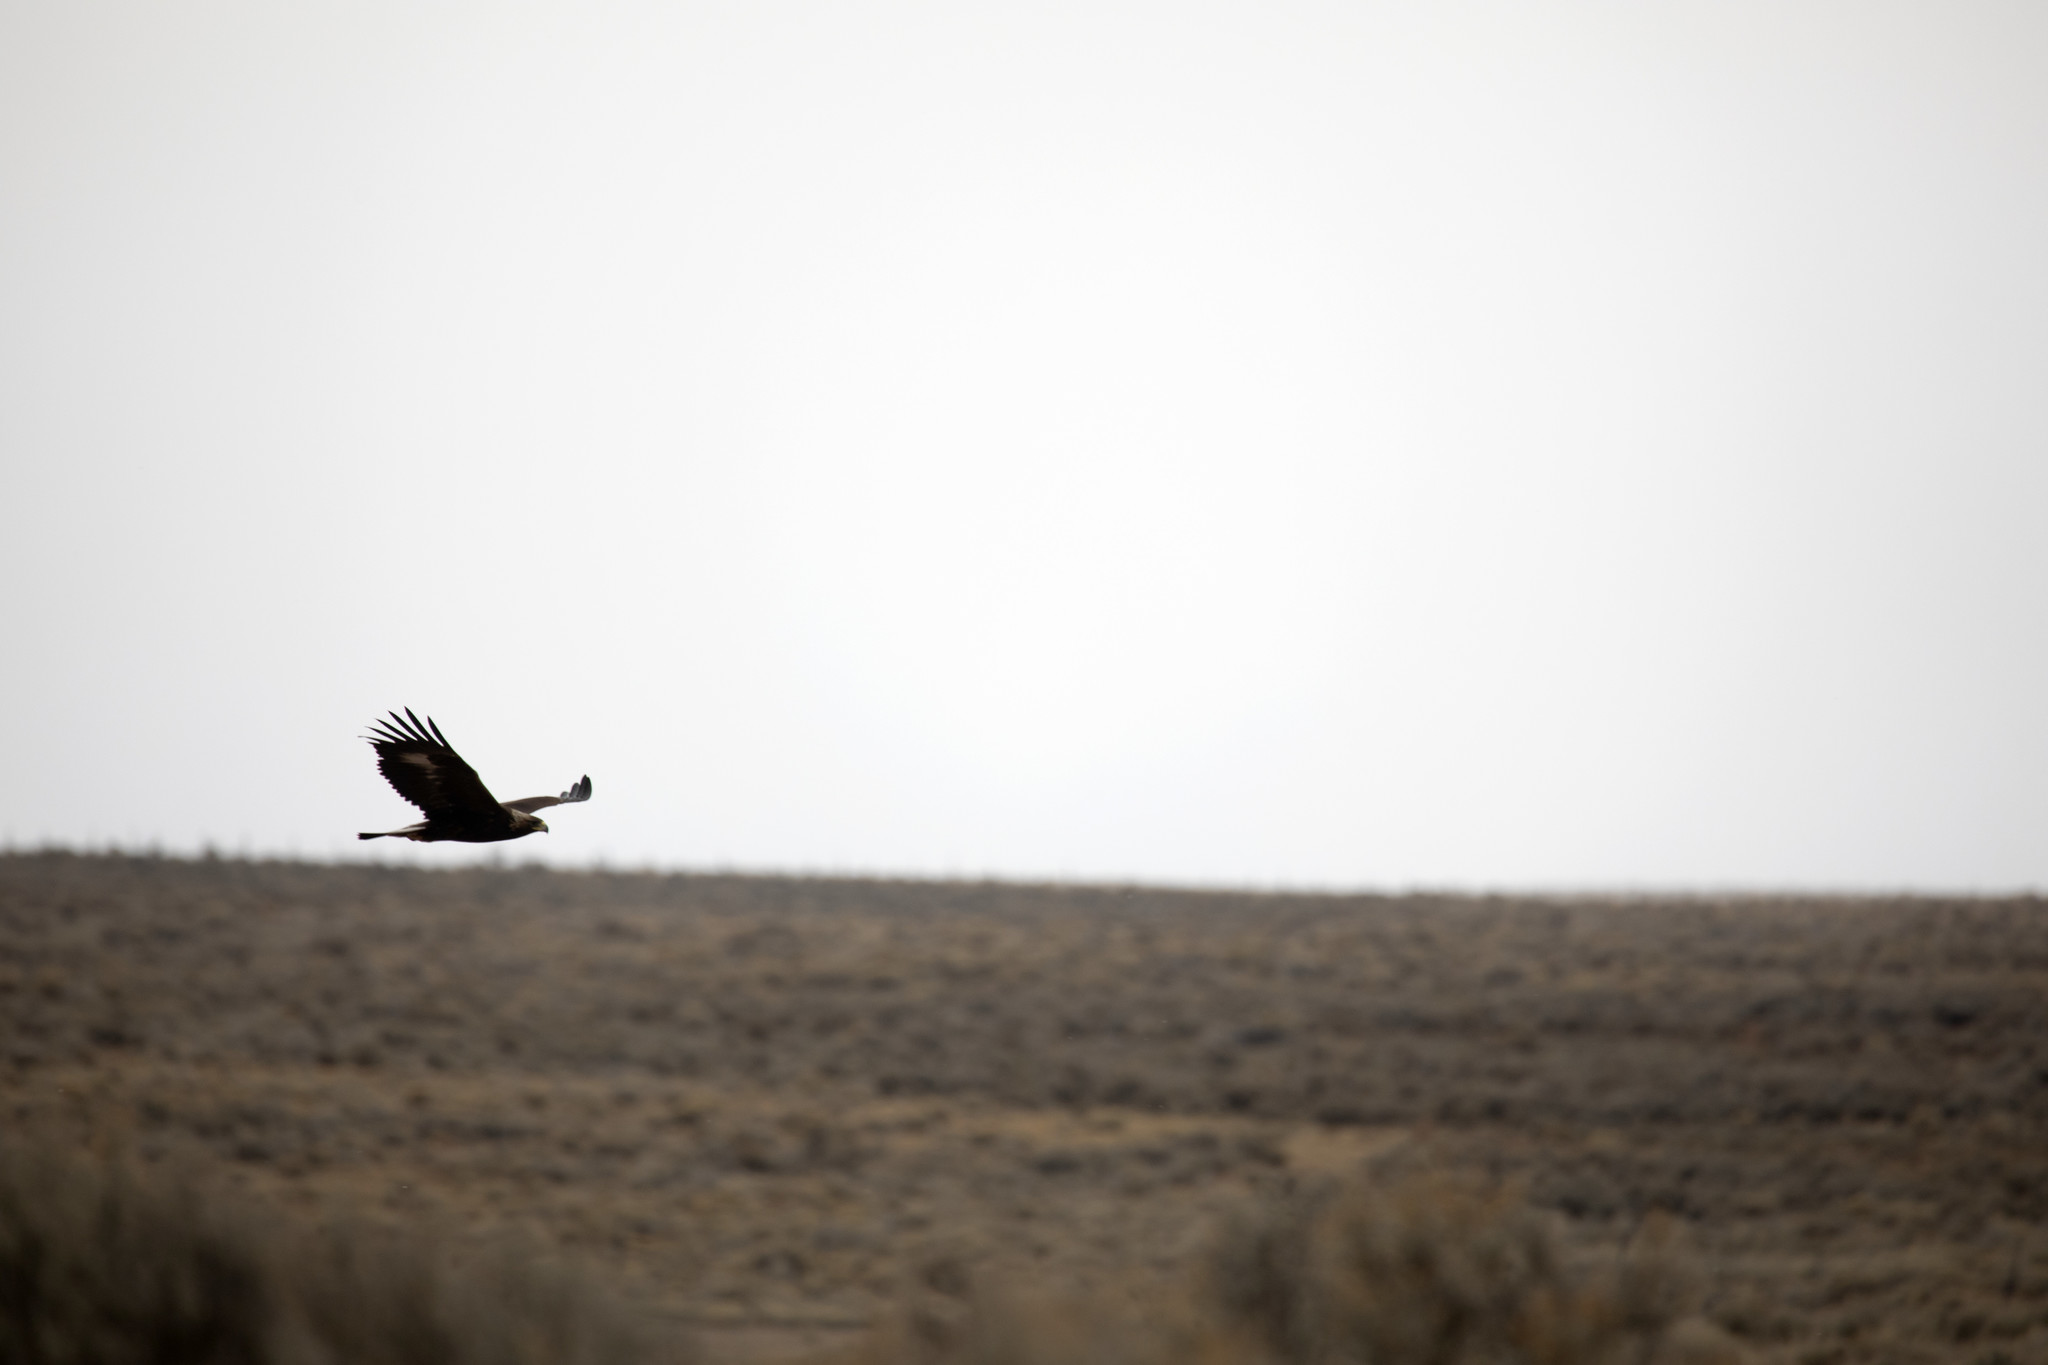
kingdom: Animalia
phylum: Chordata
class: Aves
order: Accipitriformes
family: Accipitridae
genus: Aquila
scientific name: Aquila chrysaetos
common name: Golden eagle
